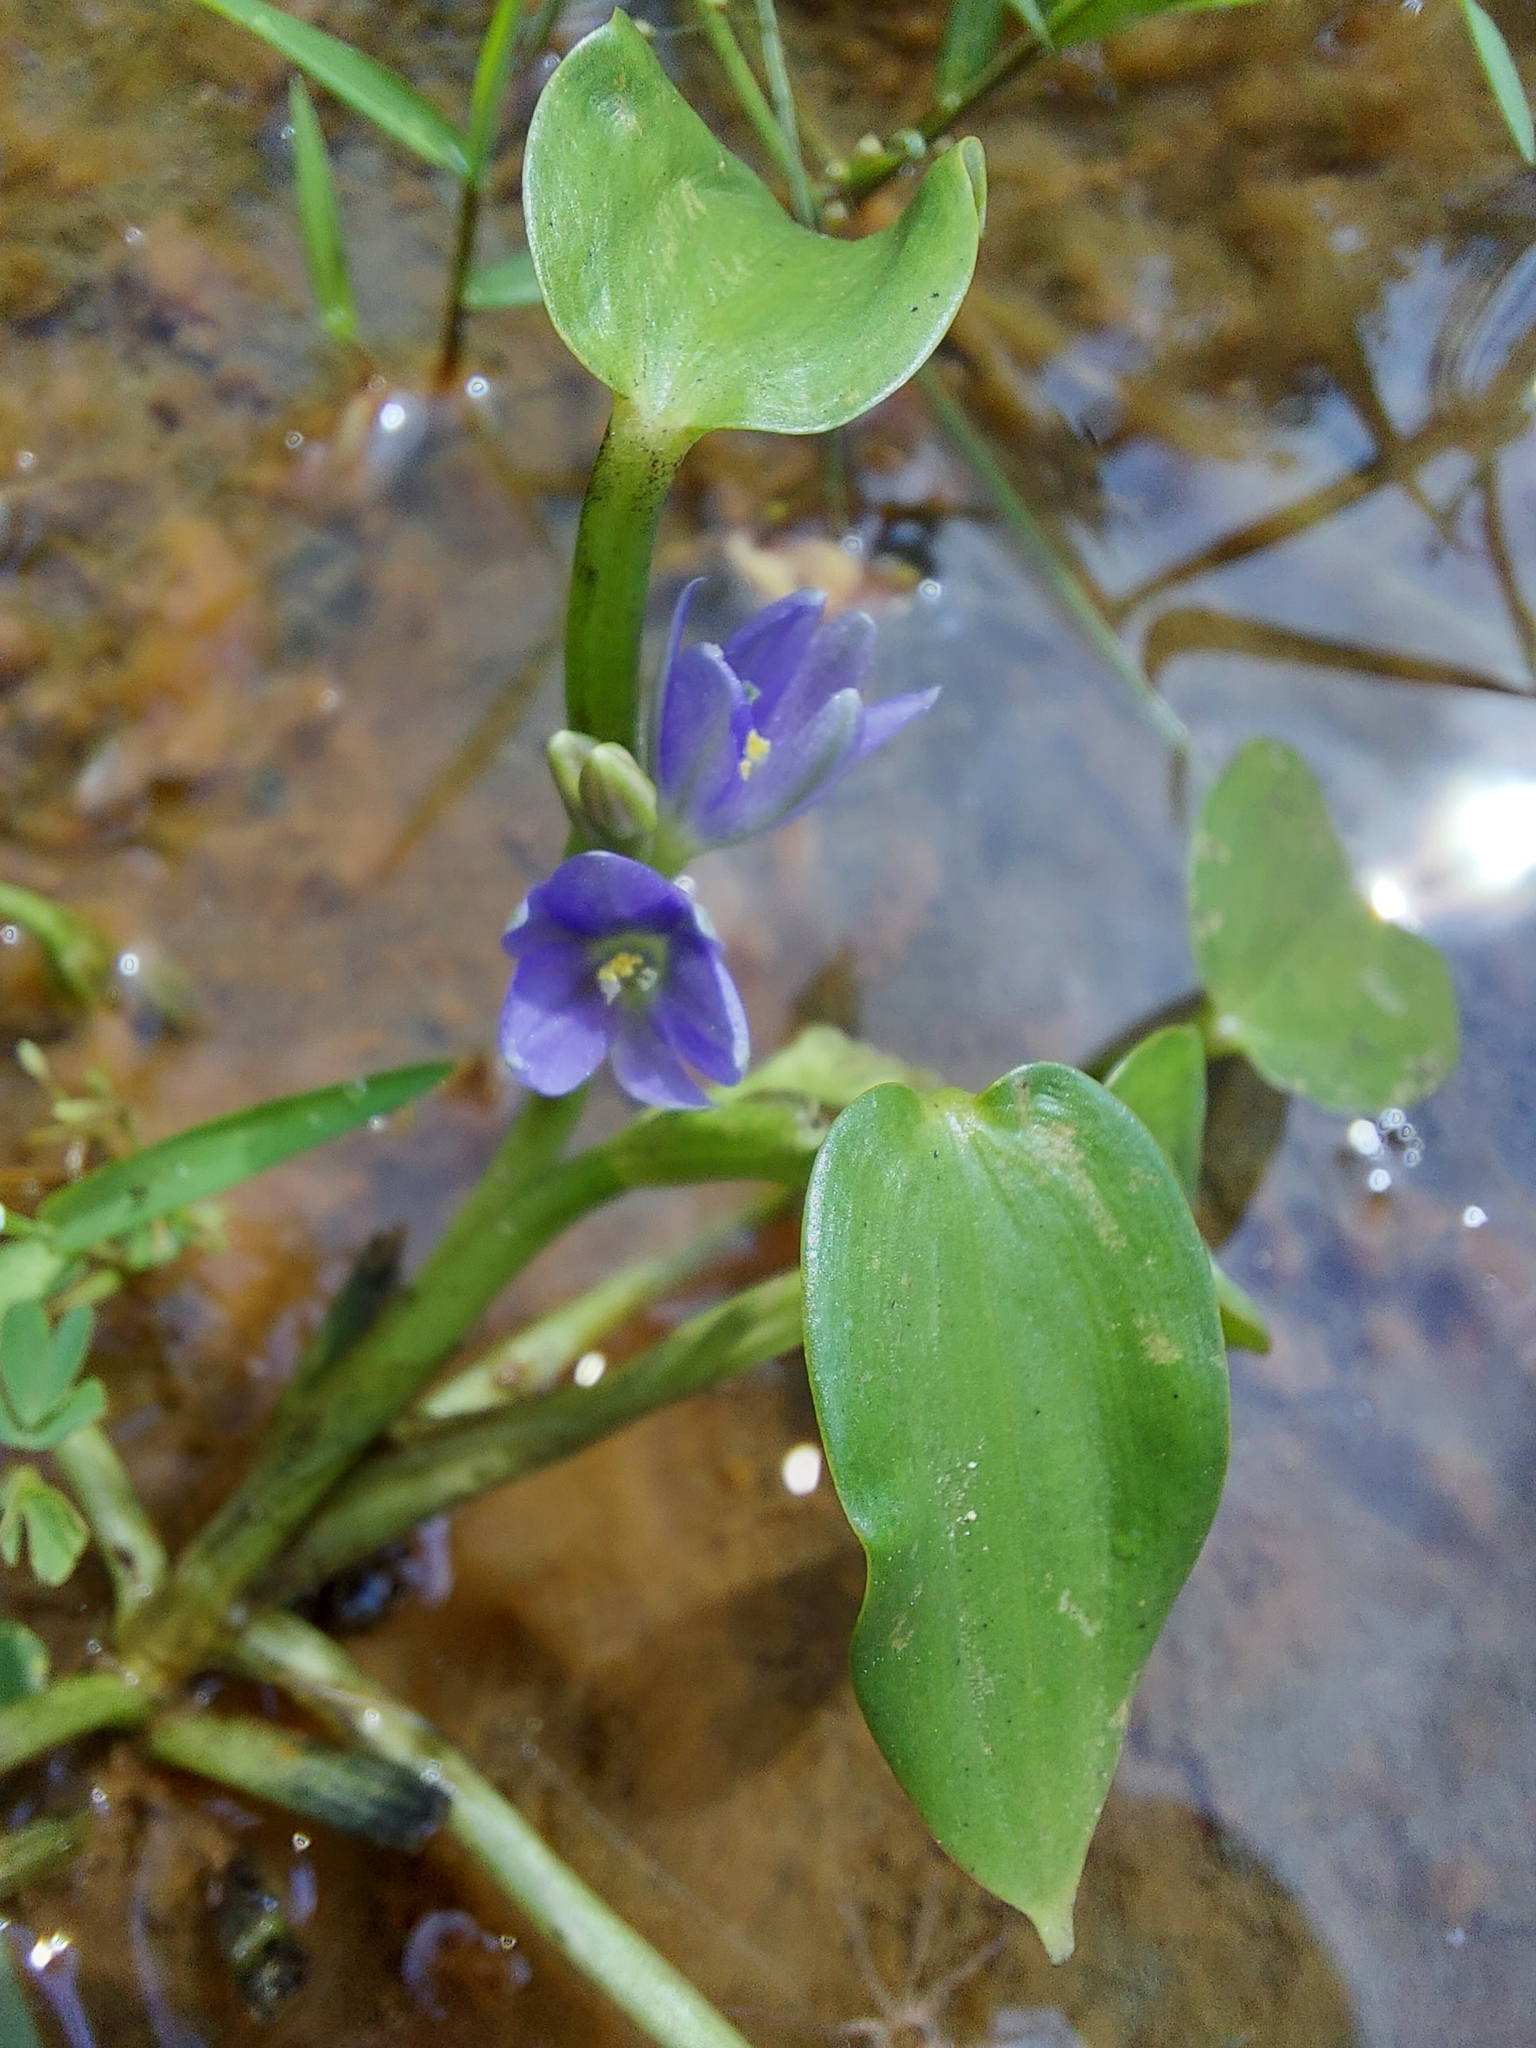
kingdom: Plantae
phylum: Tracheophyta
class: Liliopsida
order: Commelinales
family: Pontederiaceae
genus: Pontederia
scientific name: Pontederia vaginalis
